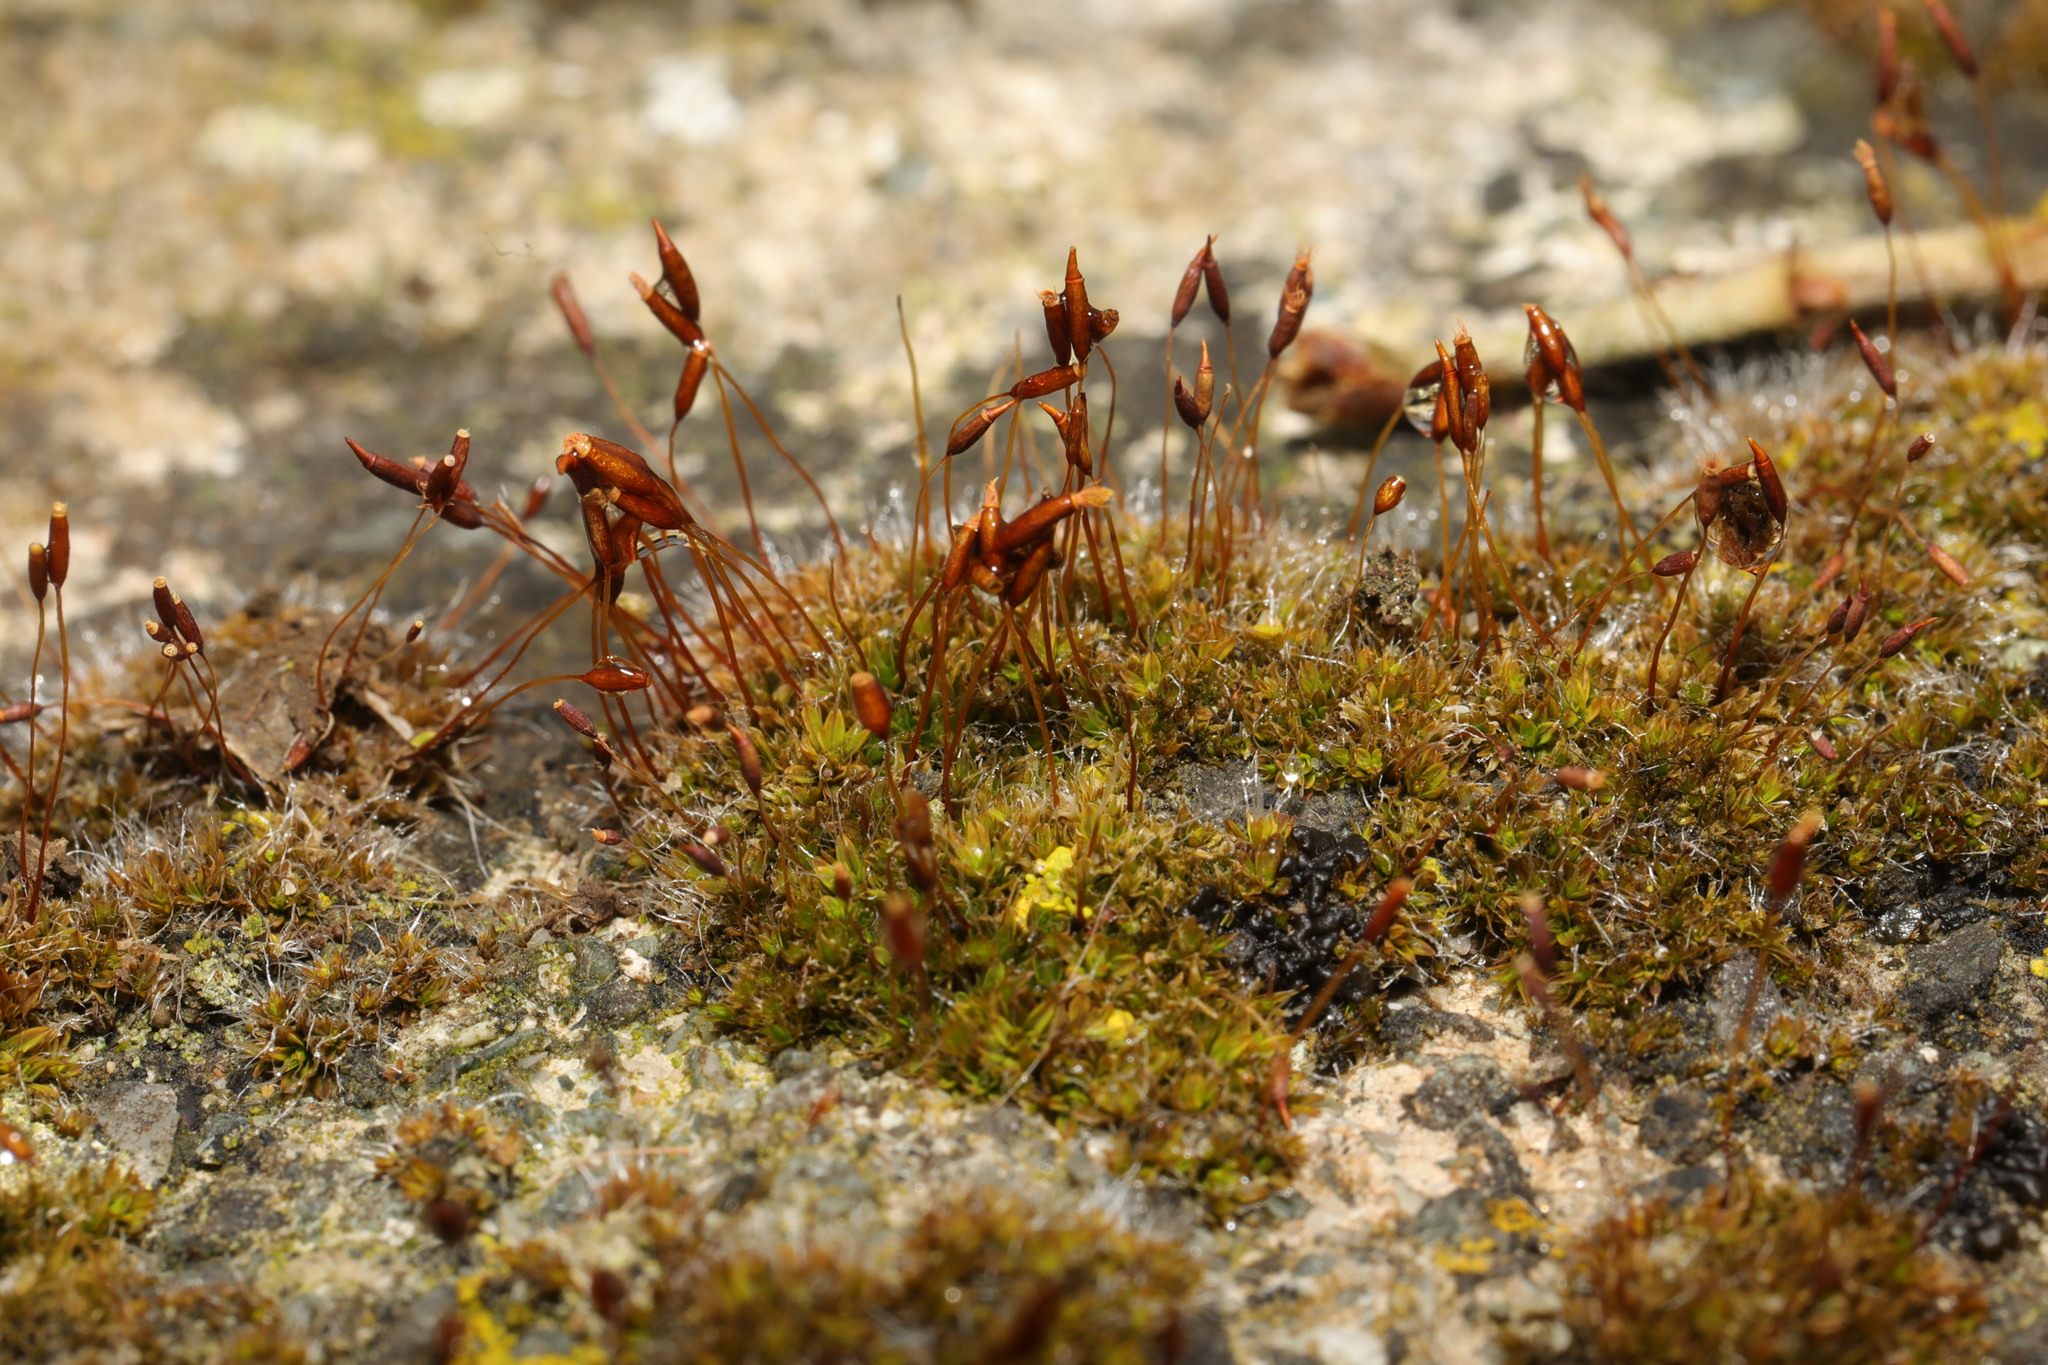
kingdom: Plantae
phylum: Bryophyta
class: Bryopsida
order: Pottiales
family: Pottiaceae
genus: Tortula
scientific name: Tortula muralis
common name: Wall screw-moss
